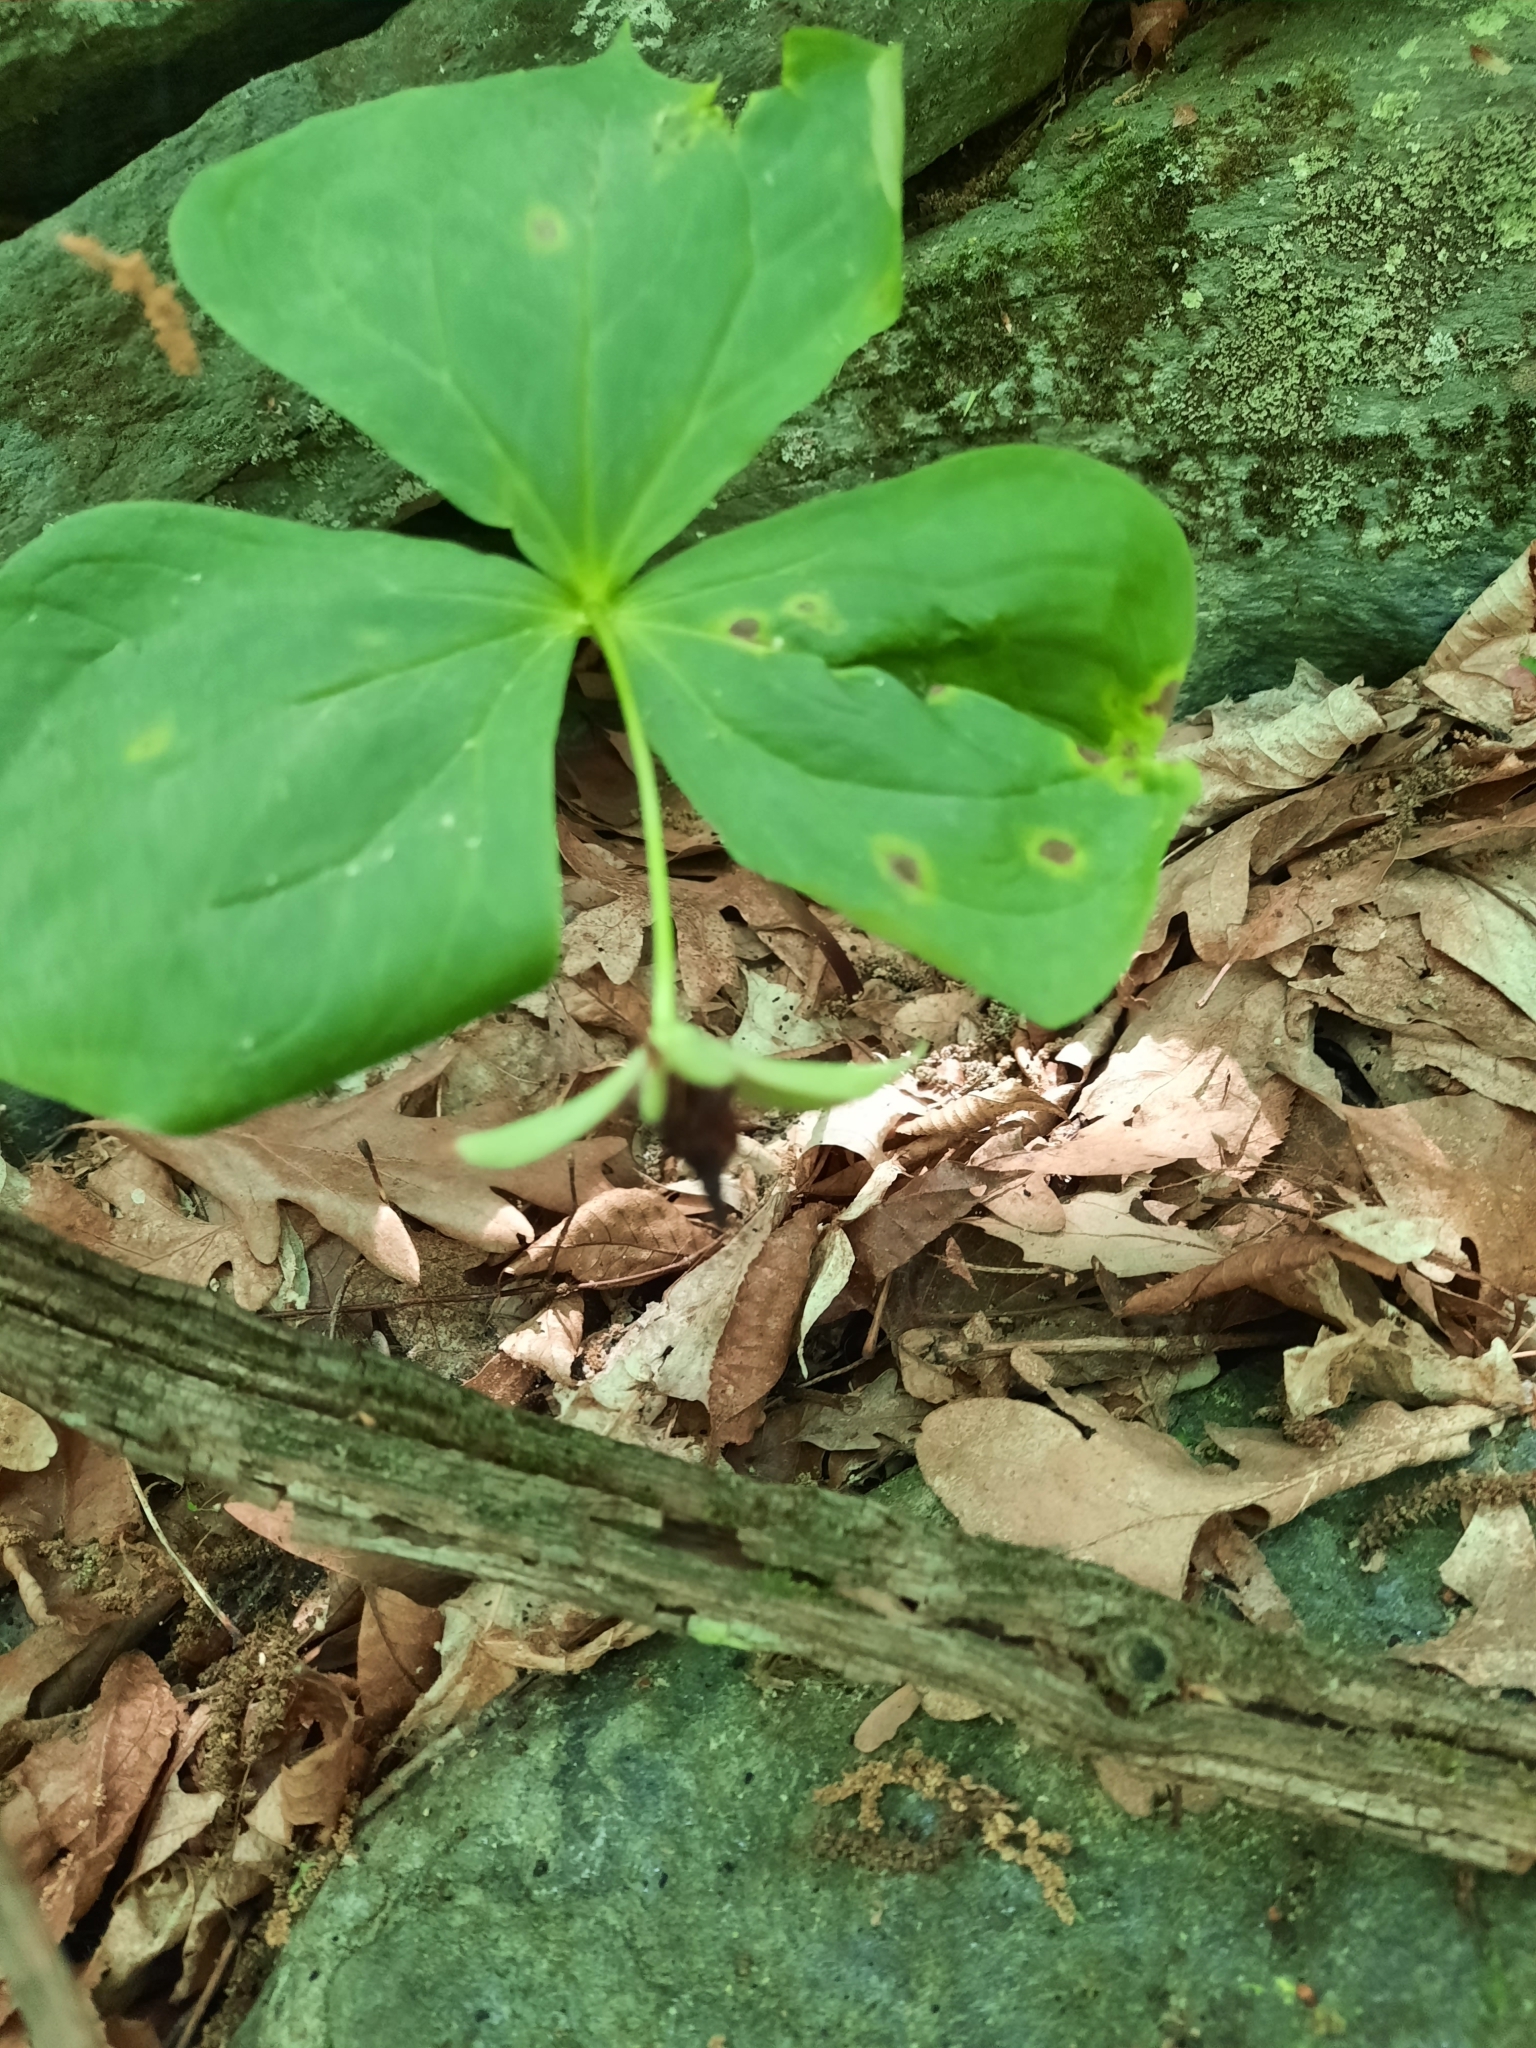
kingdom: Plantae
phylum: Tracheophyta
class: Liliopsida
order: Liliales
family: Melanthiaceae
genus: Trillium
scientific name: Trillium erectum
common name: Purple trillium
